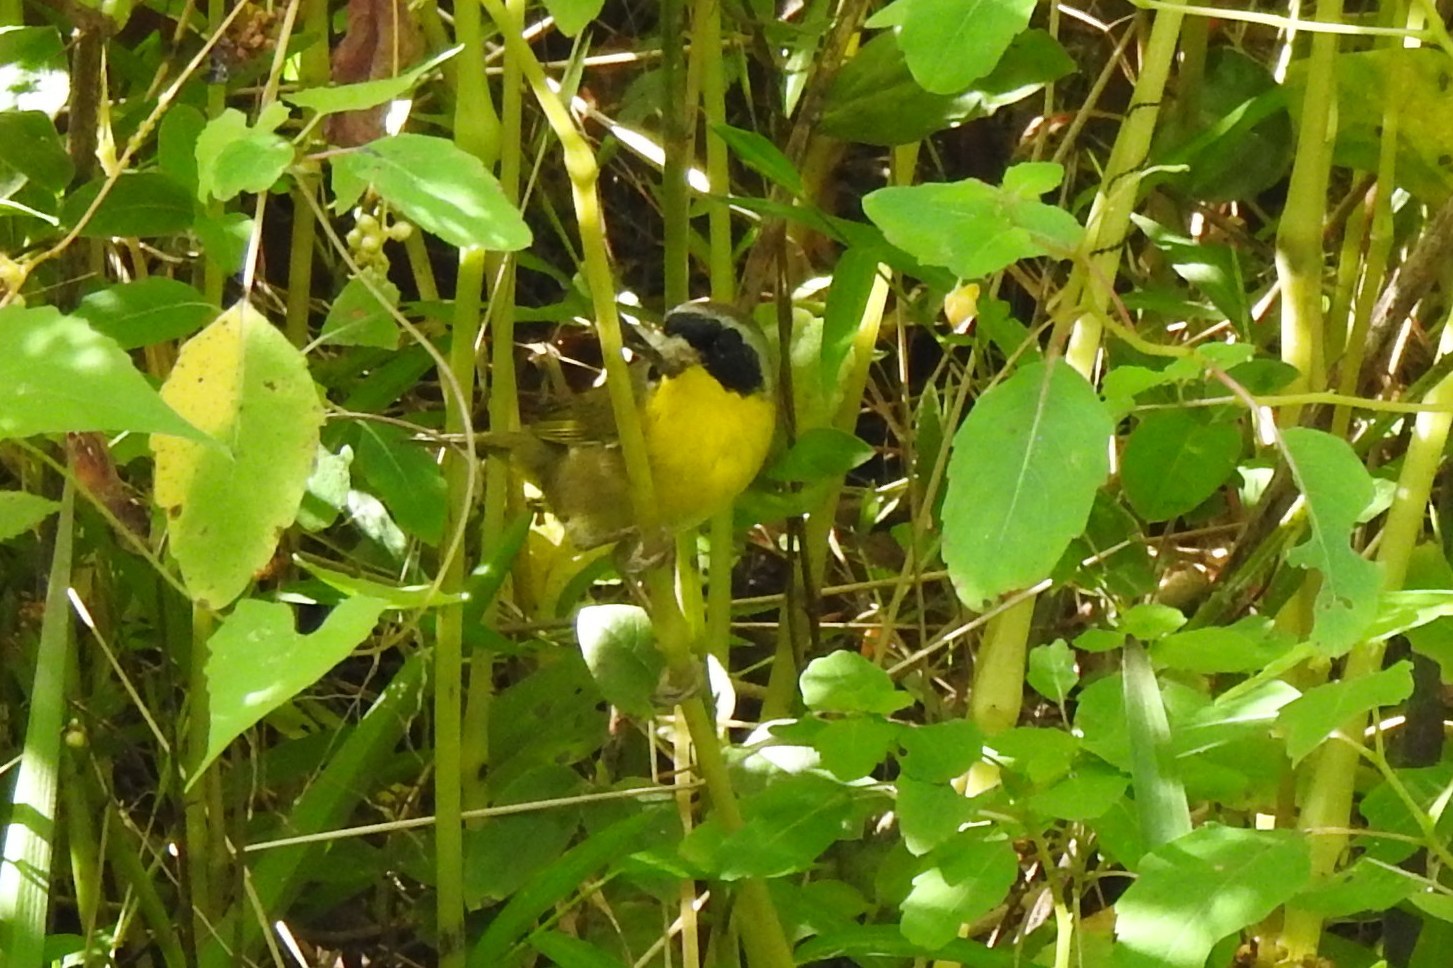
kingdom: Animalia
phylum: Chordata
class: Aves
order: Passeriformes
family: Parulidae
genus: Geothlypis
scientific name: Geothlypis trichas
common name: Common yellowthroat
